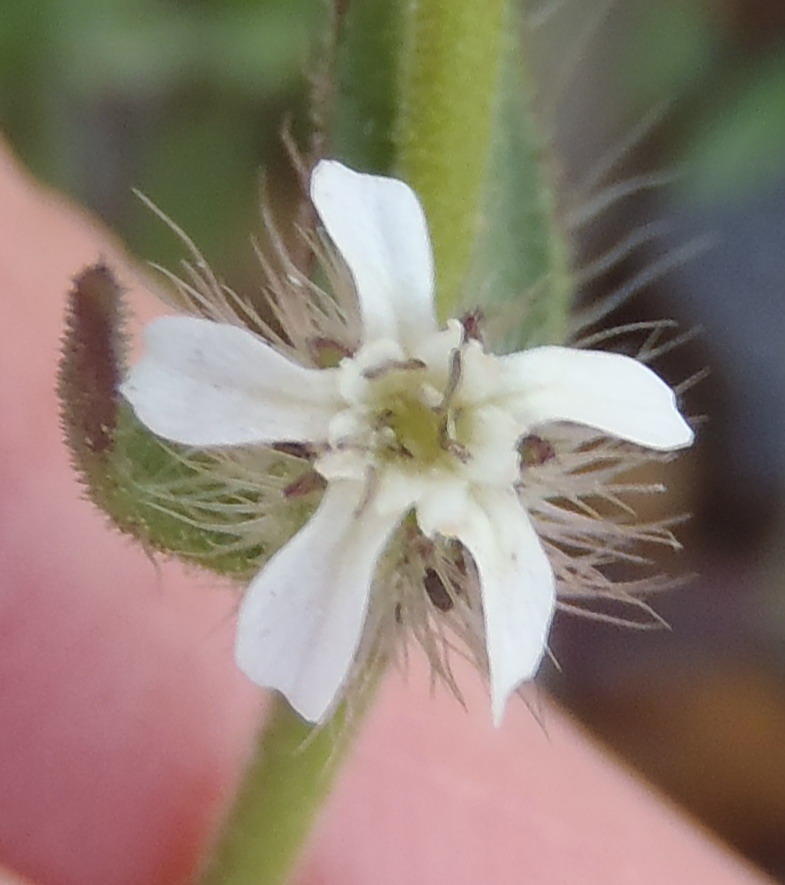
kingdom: Plantae
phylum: Tracheophyta
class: Magnoliopsida
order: Caryophyllales
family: Caryophyllaceae
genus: Silene
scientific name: Silene gallica
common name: Small-flowered catchfly
